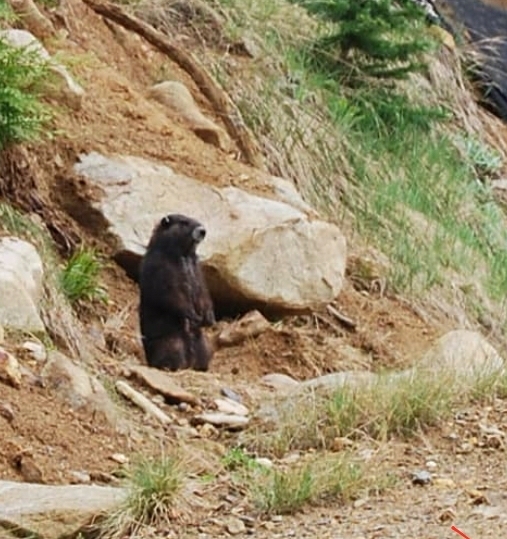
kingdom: Animalia
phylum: Chordata
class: Mammalia
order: Rodentia
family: Sciuridae
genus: Marmota
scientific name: Marmota vancouverensis
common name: Vancouver island marmot
